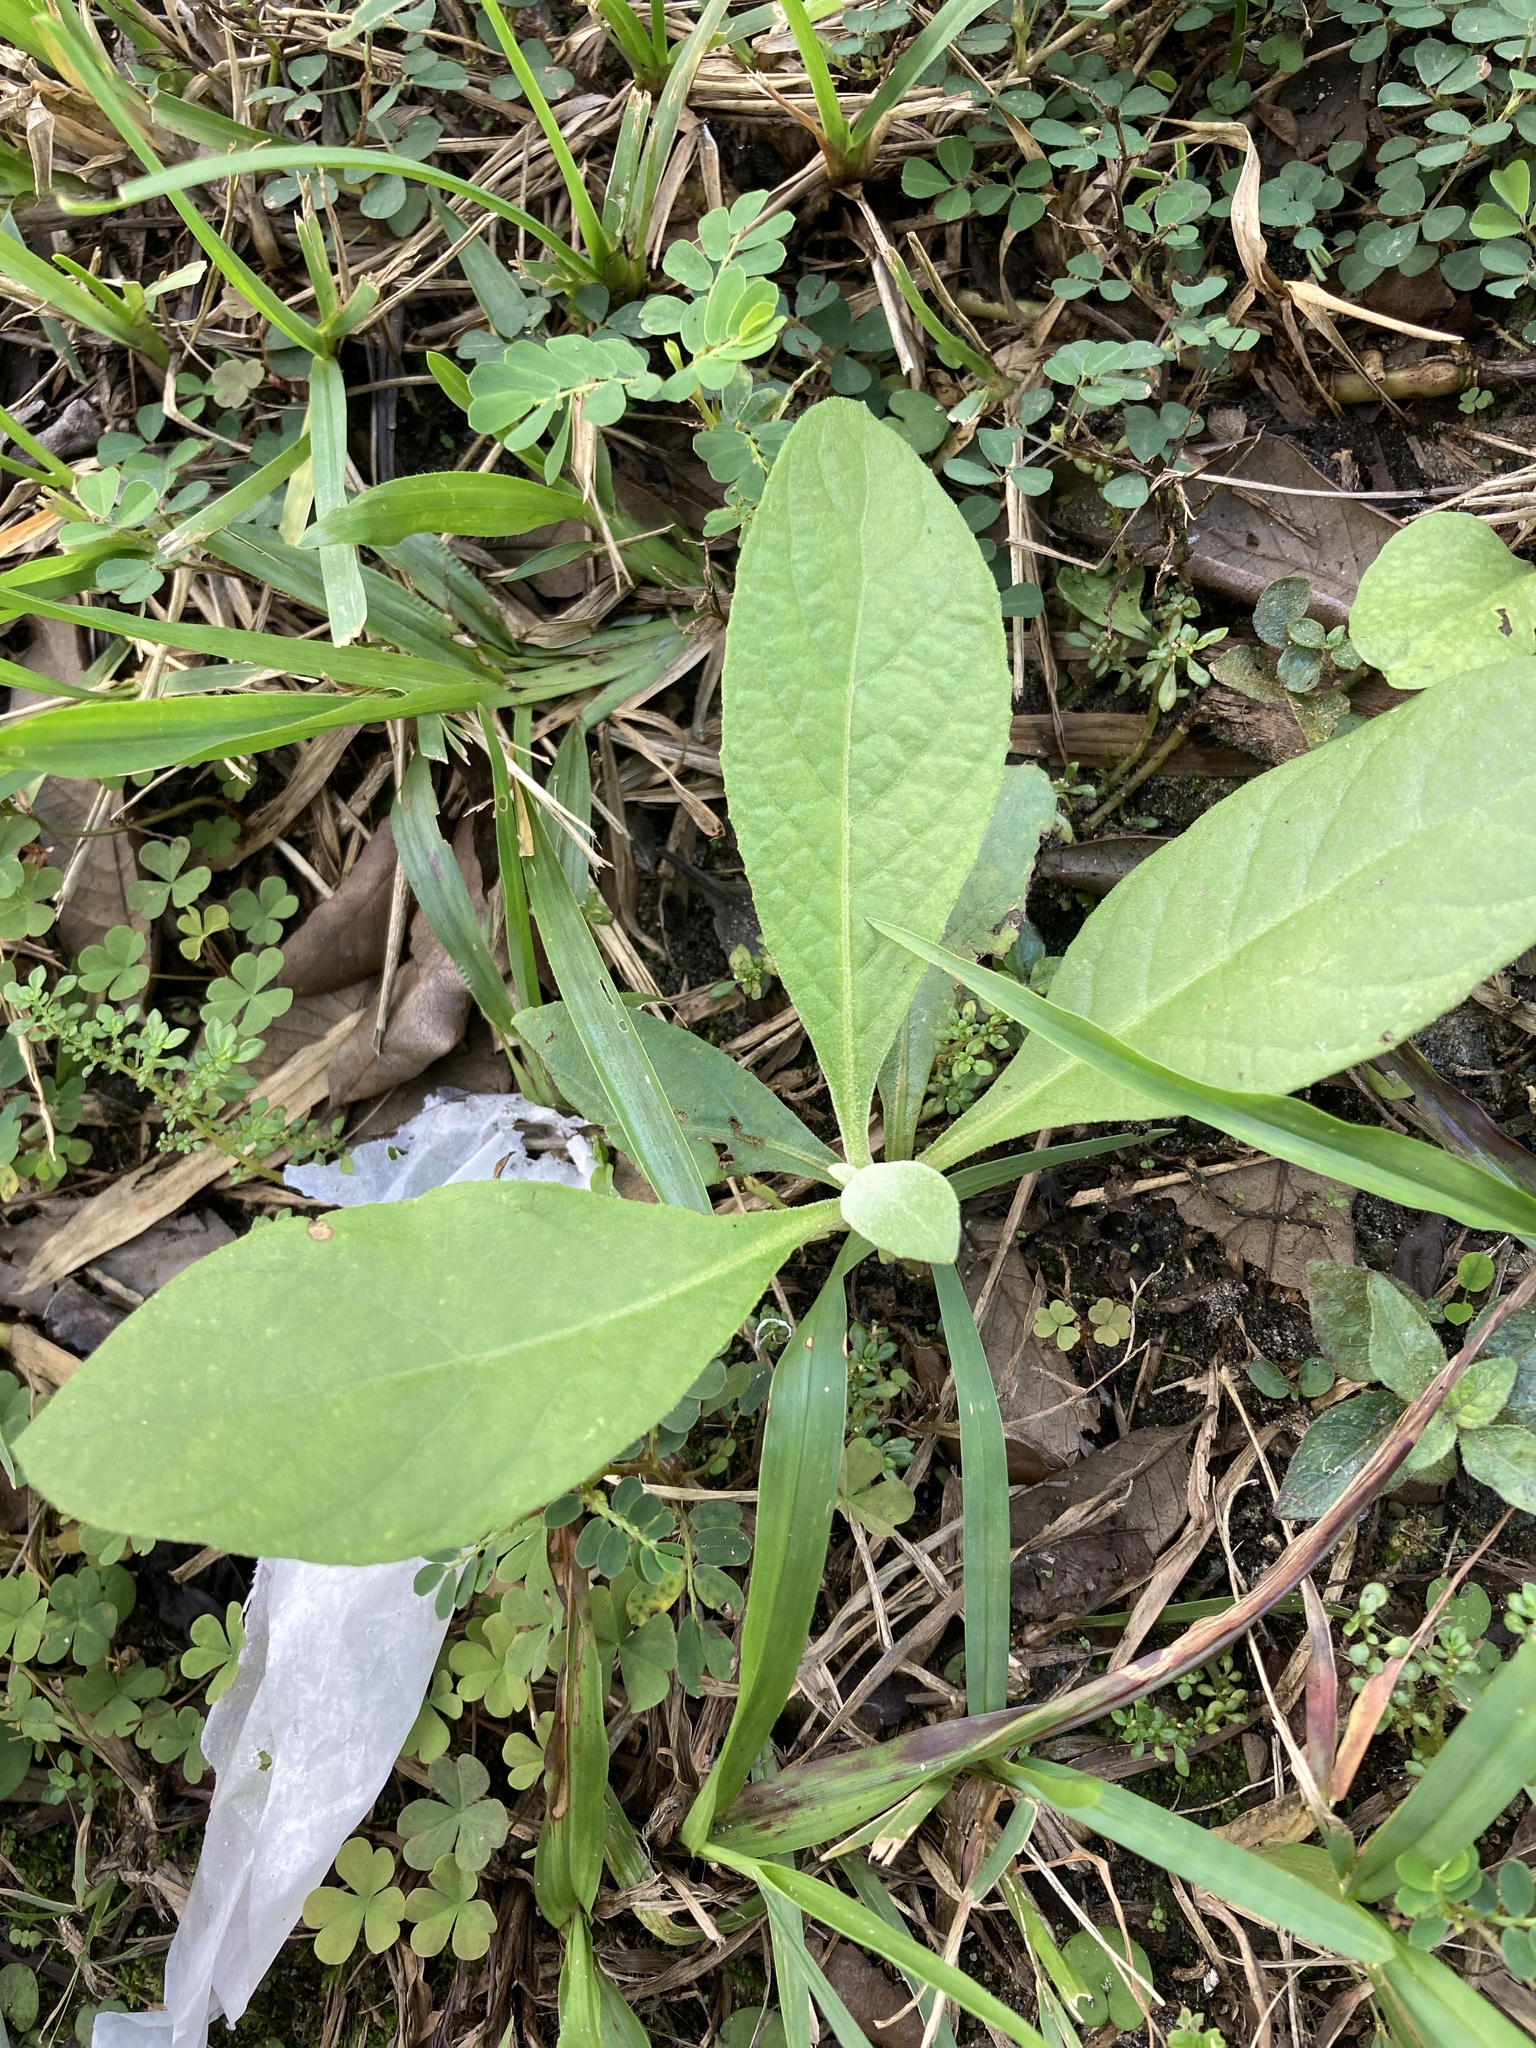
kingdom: Plantae
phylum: Tracheophyta
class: Magnoliopsida
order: Asterales
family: Asteraceae
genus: Pluchea
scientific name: Pluchea carolinensis
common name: Marsh fleabane
